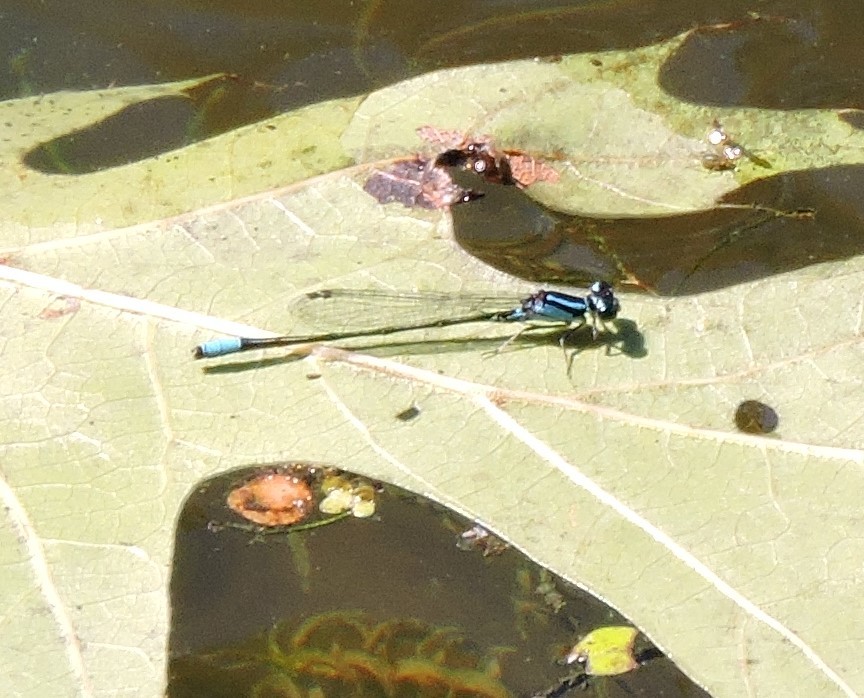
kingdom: Animalia
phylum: Arthropoda
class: Insecta
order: Odonata
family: Coenagrionidae
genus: Enallagma
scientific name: Enallagma geminatum
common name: Skimming bluet
